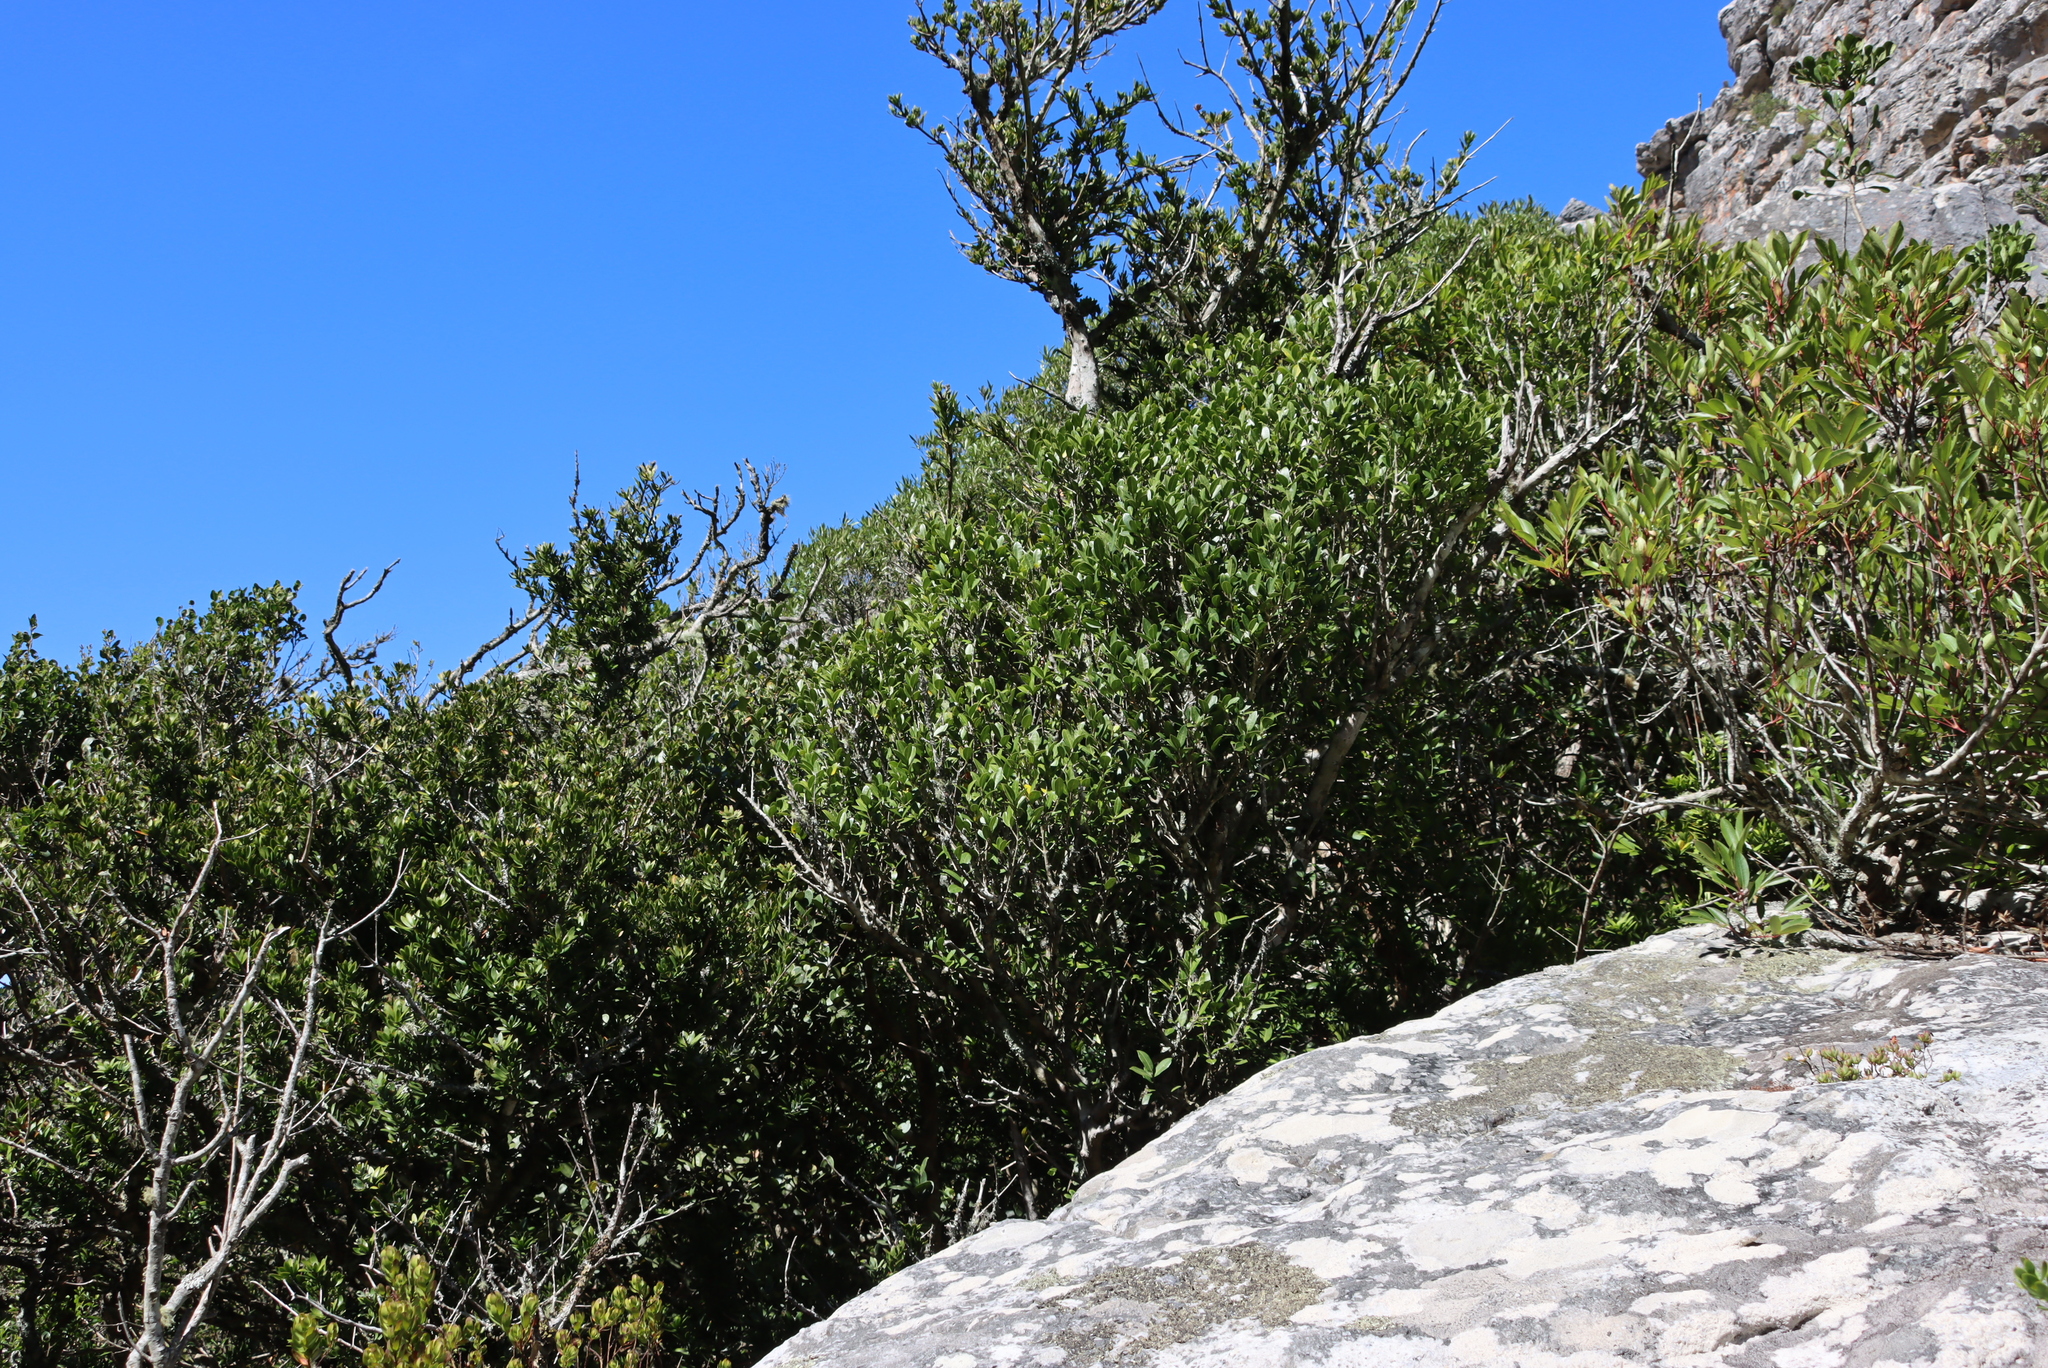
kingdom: Plantae
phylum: Tracheophyta
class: Pinopsida
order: Pinales
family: Podocarpaceae
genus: Podocarpus
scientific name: Podocarpus latifolius
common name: True yellowwood
